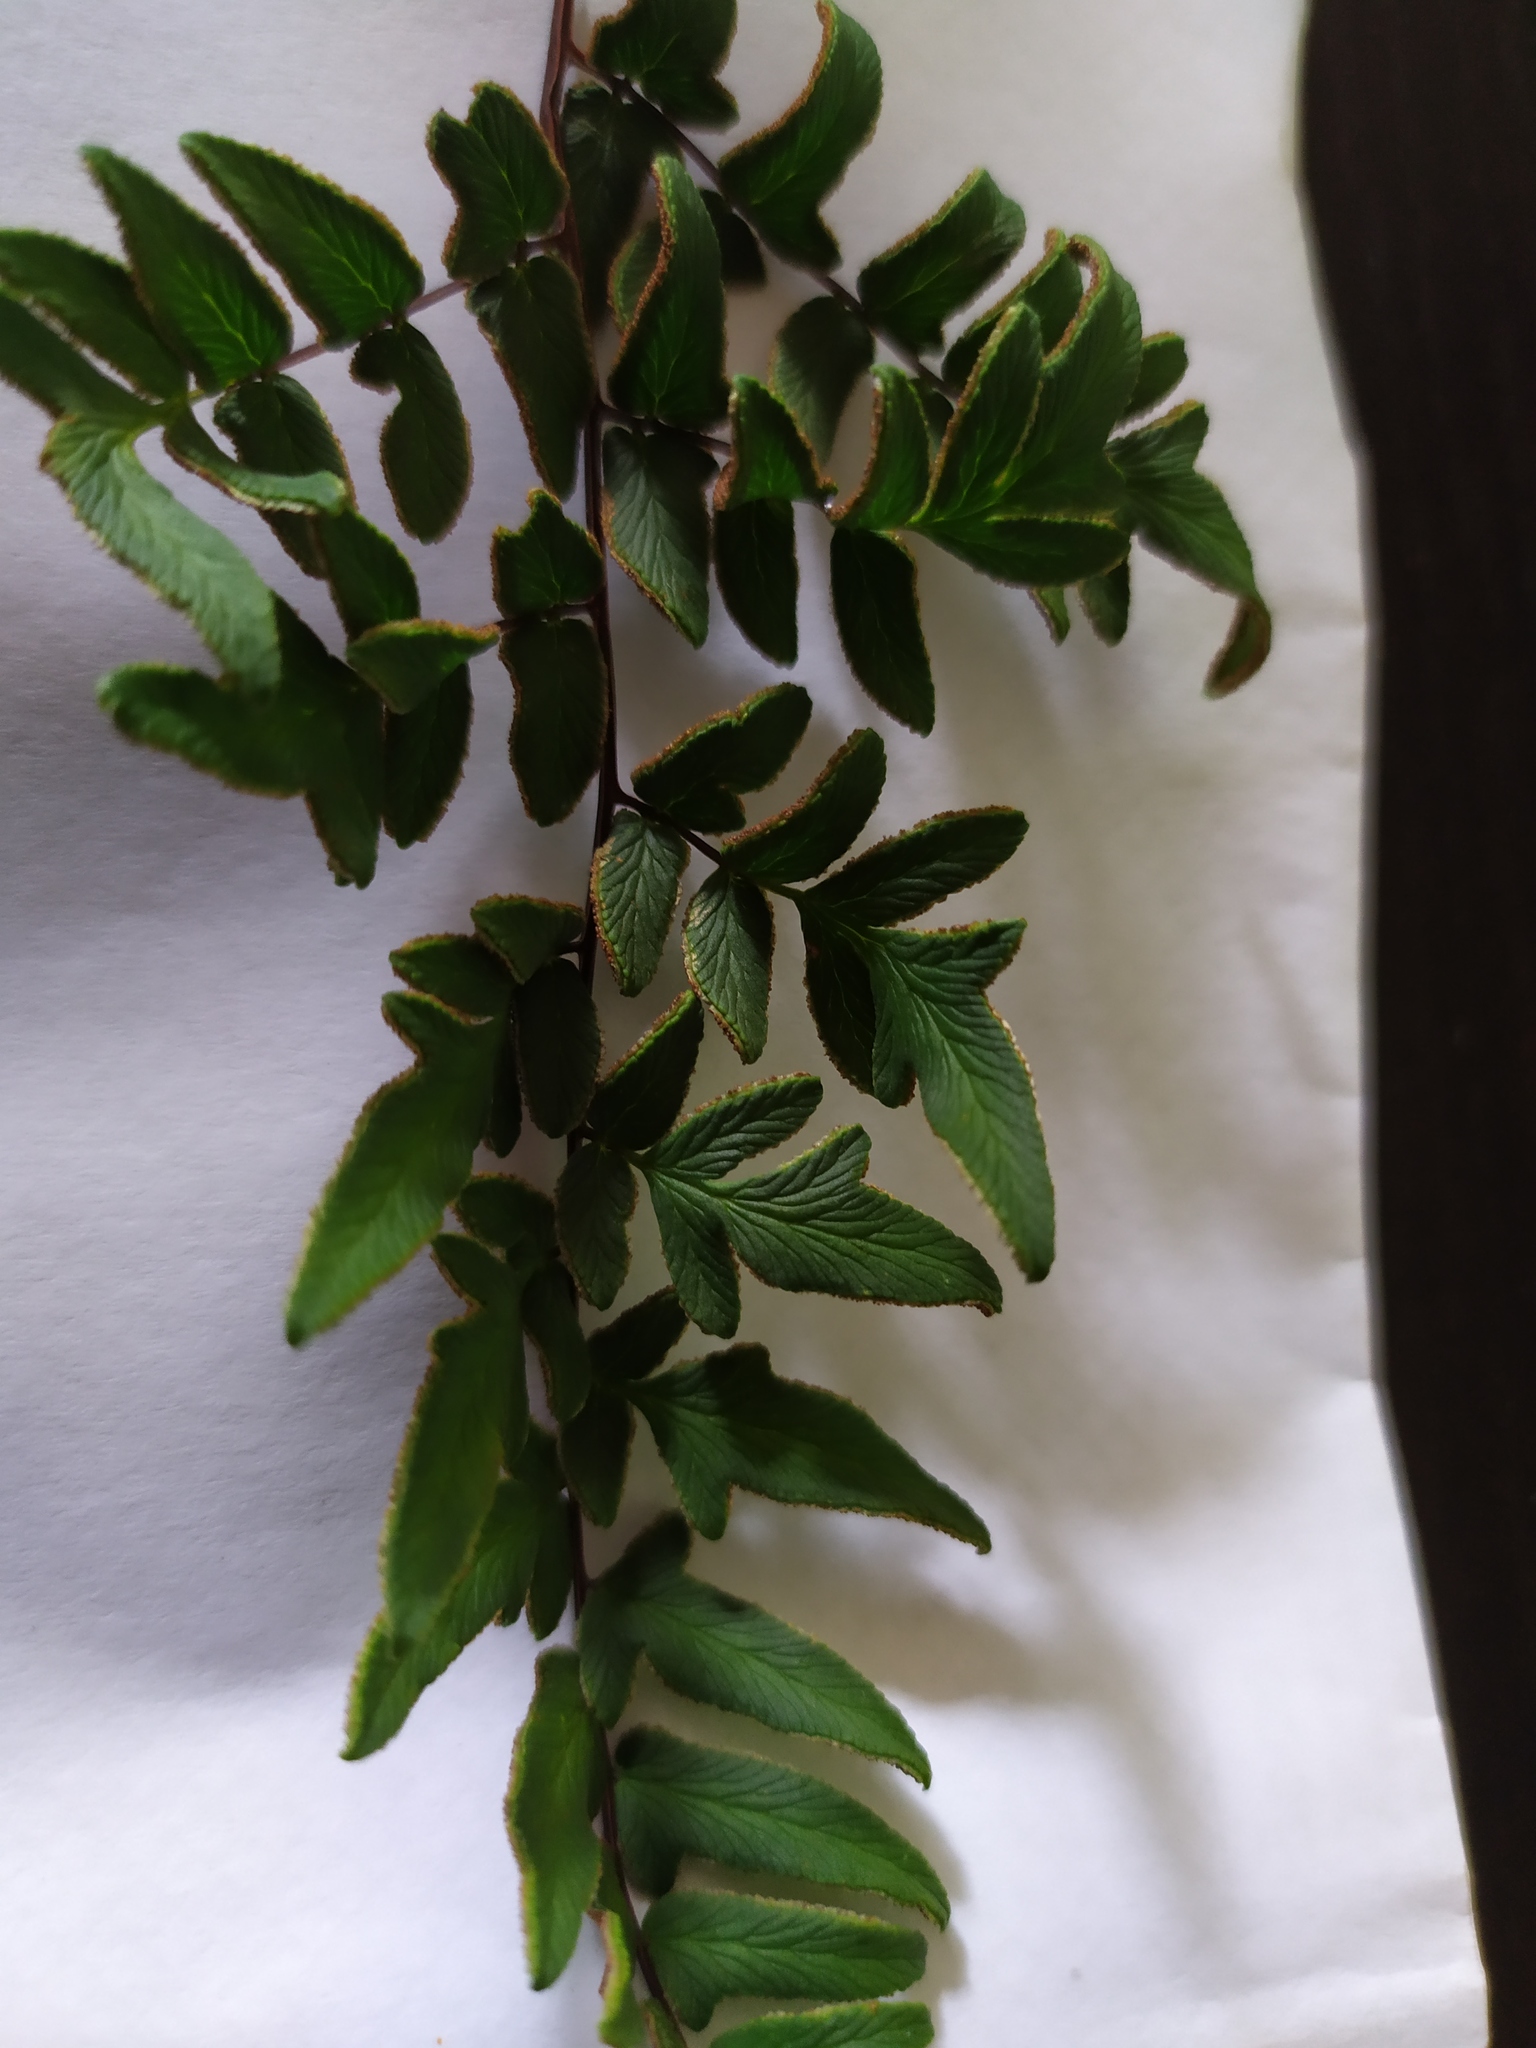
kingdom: Plantae
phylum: Tracheophyta
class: Polypodiopsida
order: Polypodiales
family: Pteridaceae
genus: Cheilanthes
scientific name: Cheilanthes viridis
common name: Green cliffbrake
